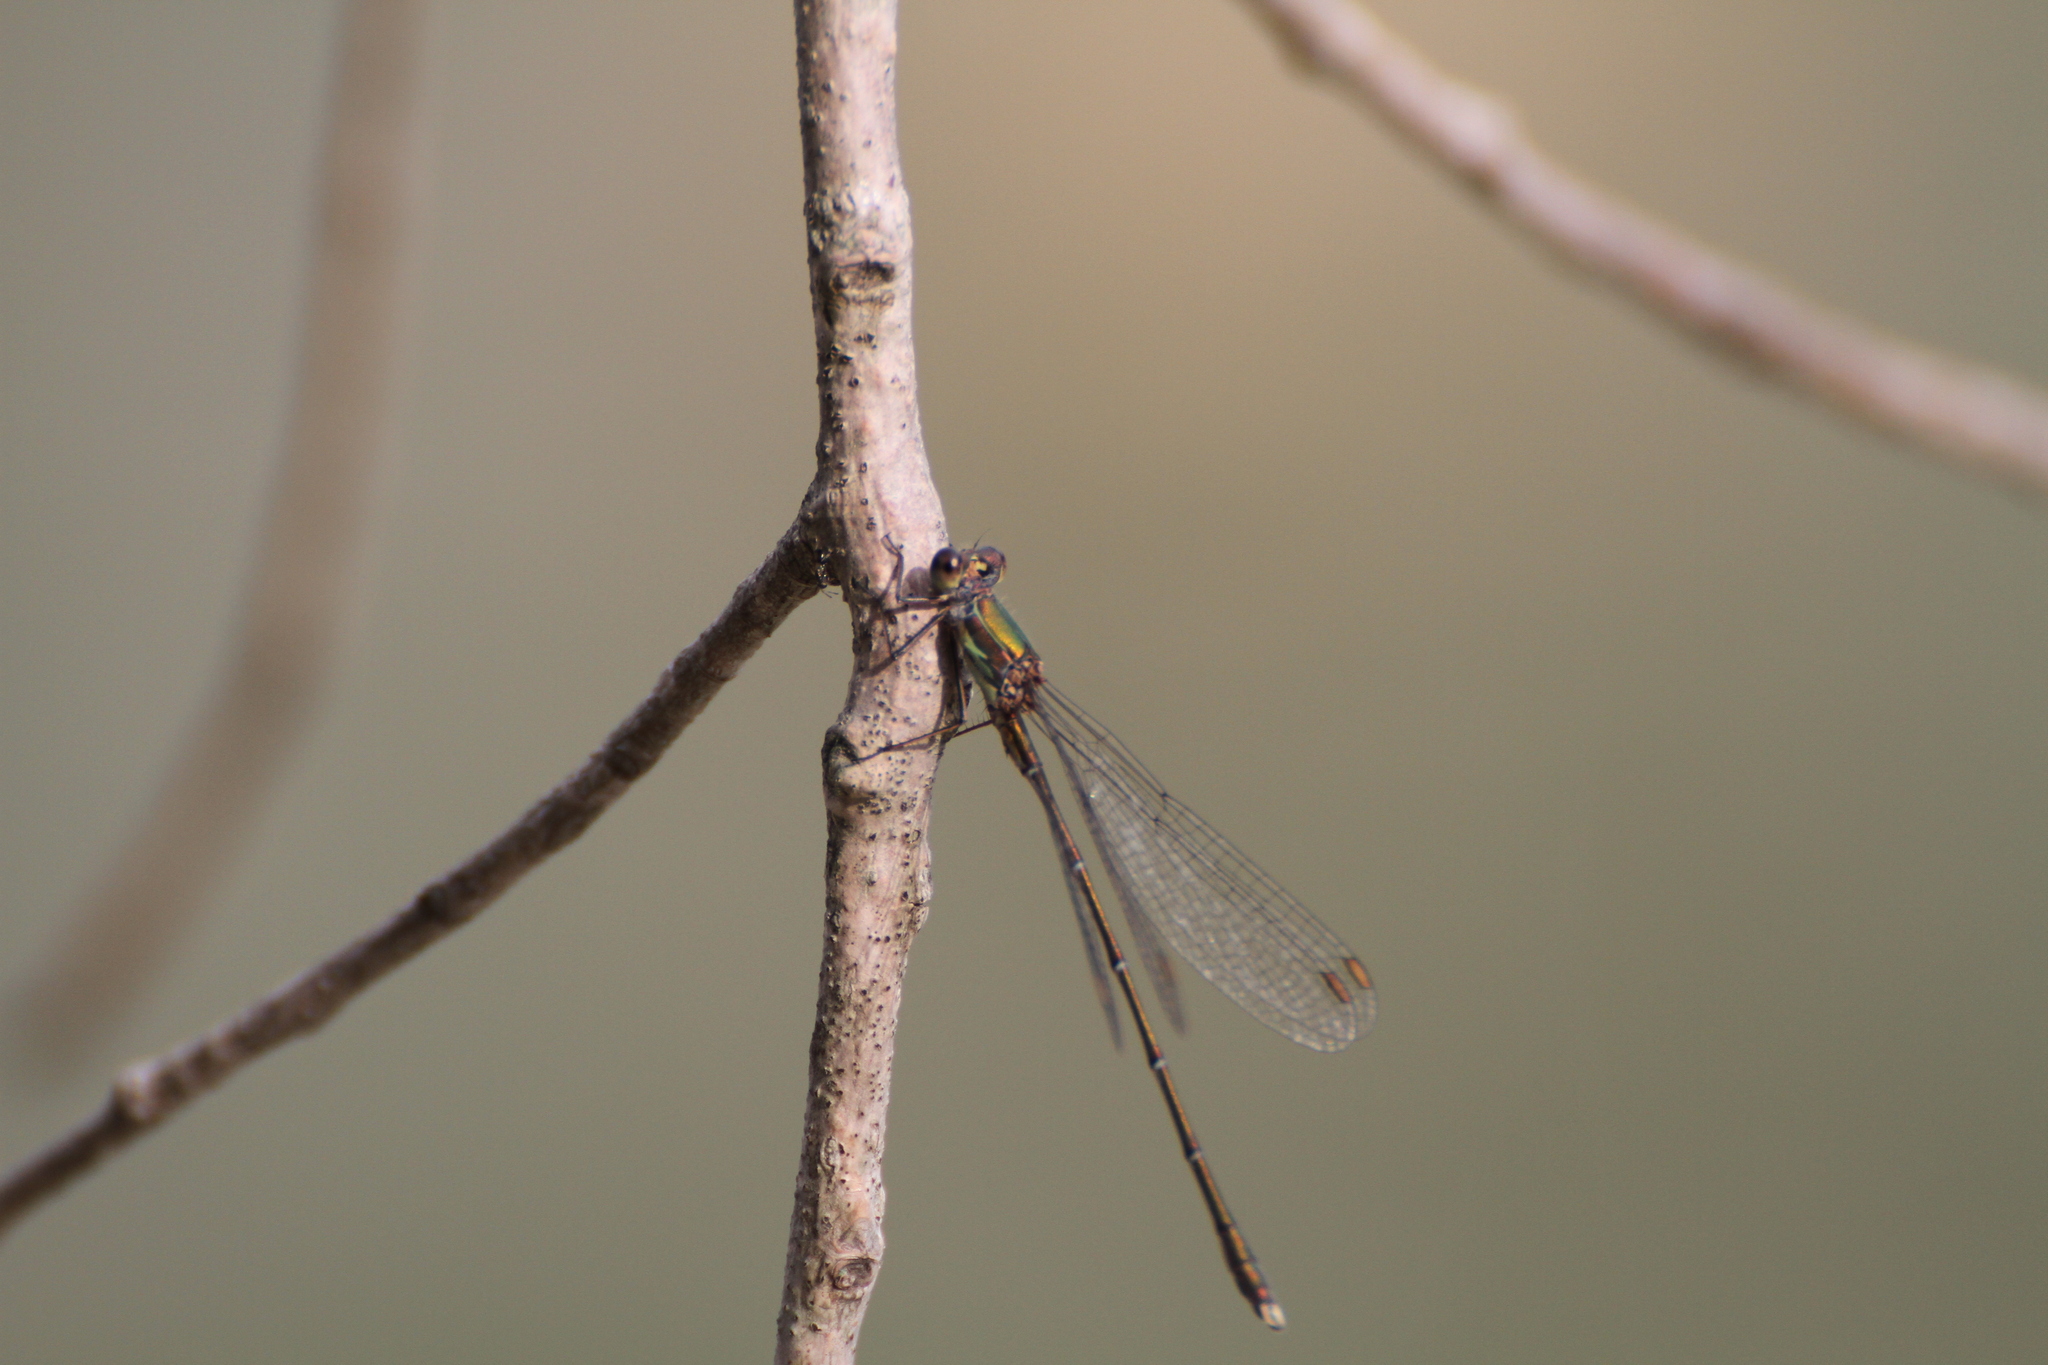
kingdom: Animalia
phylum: Arthropoda
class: Insecta
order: Odonata
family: Lestidae
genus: Chalcolestes
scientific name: Chalcolestes viridis
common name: Green emerald damselfly
